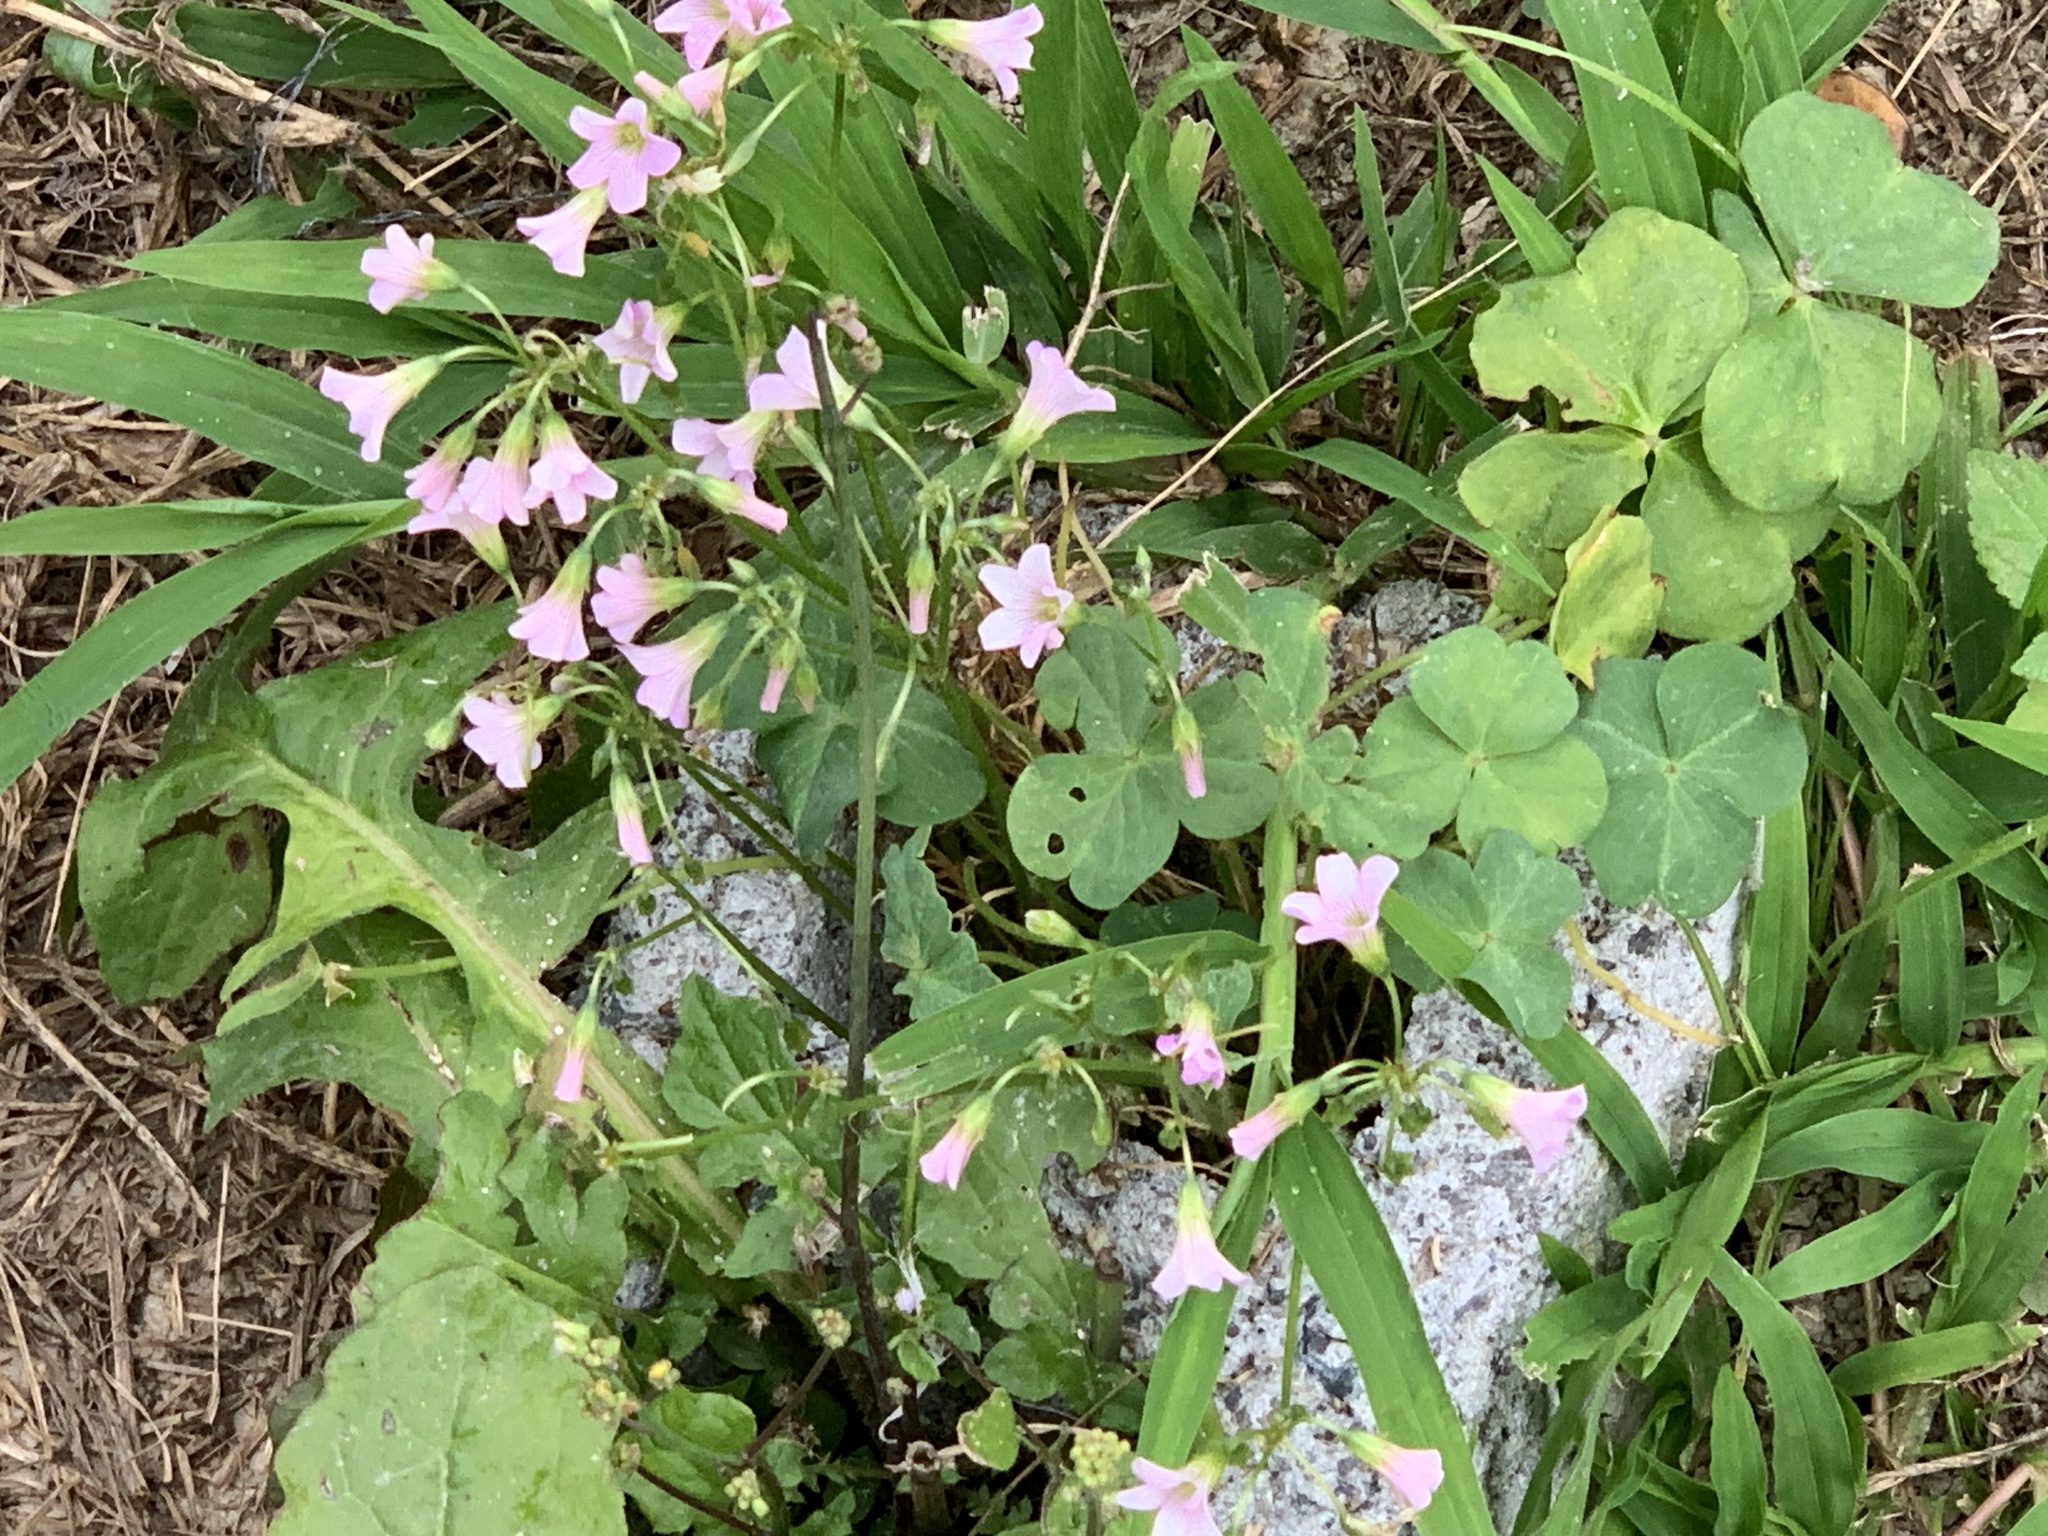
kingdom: Plantae
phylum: Tracheophyta
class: Magnoliopsida
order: Oxalidales
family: Oxalidaceae
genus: Oxalis
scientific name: Oxalis debilis
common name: Large-flowered pink-sorrel
